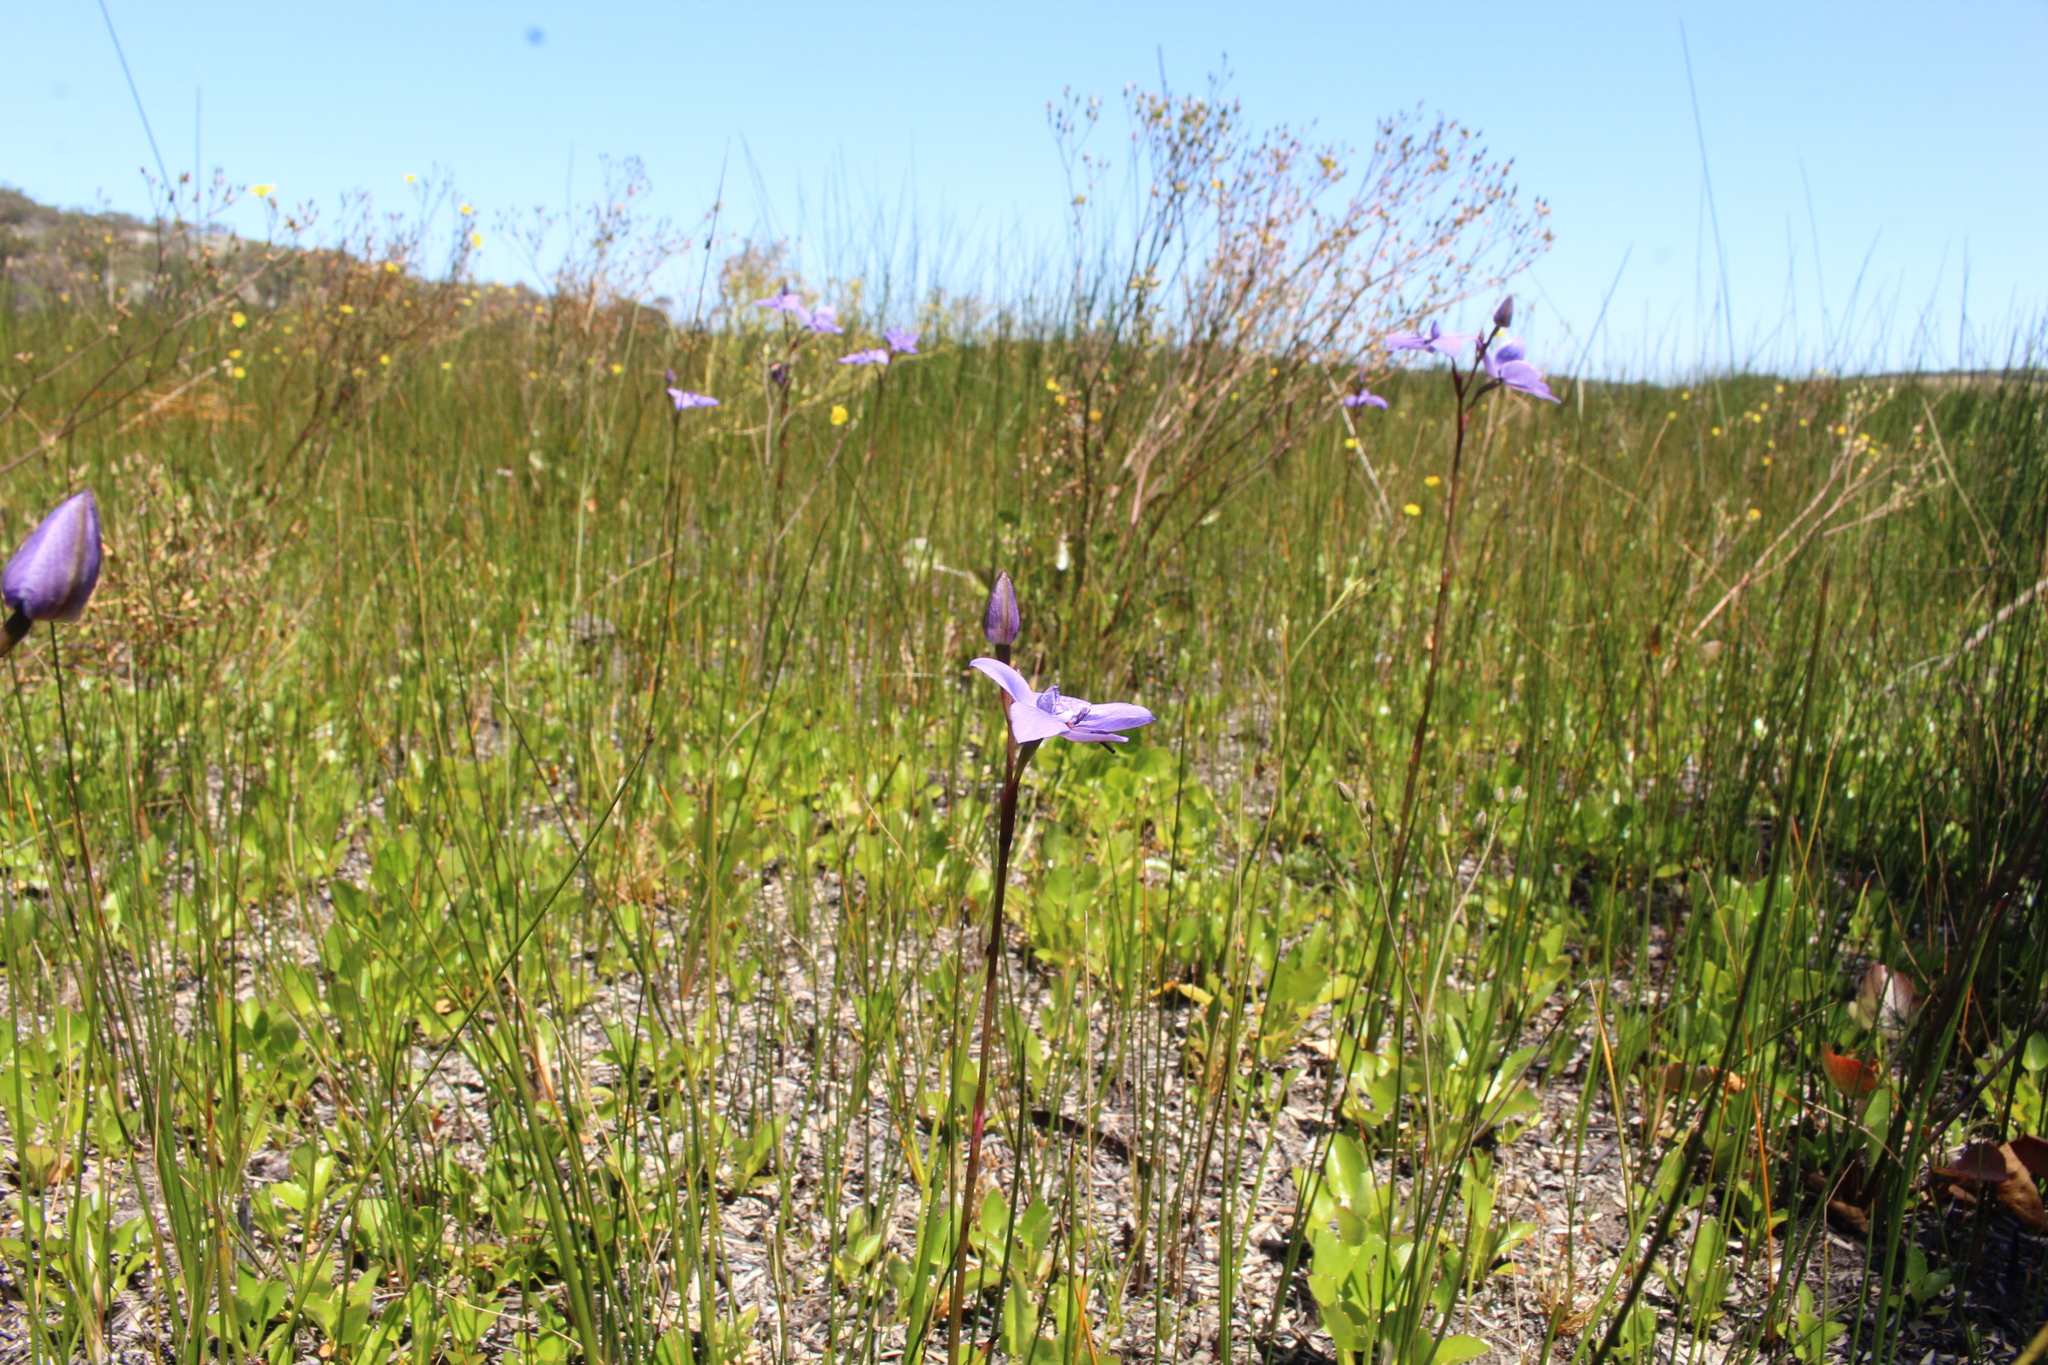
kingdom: Plantae
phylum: Tracheophyta
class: Liliopsida
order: Asparagales
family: Orchidaceae
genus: Epiblema
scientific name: Epiblema grandiflorum
